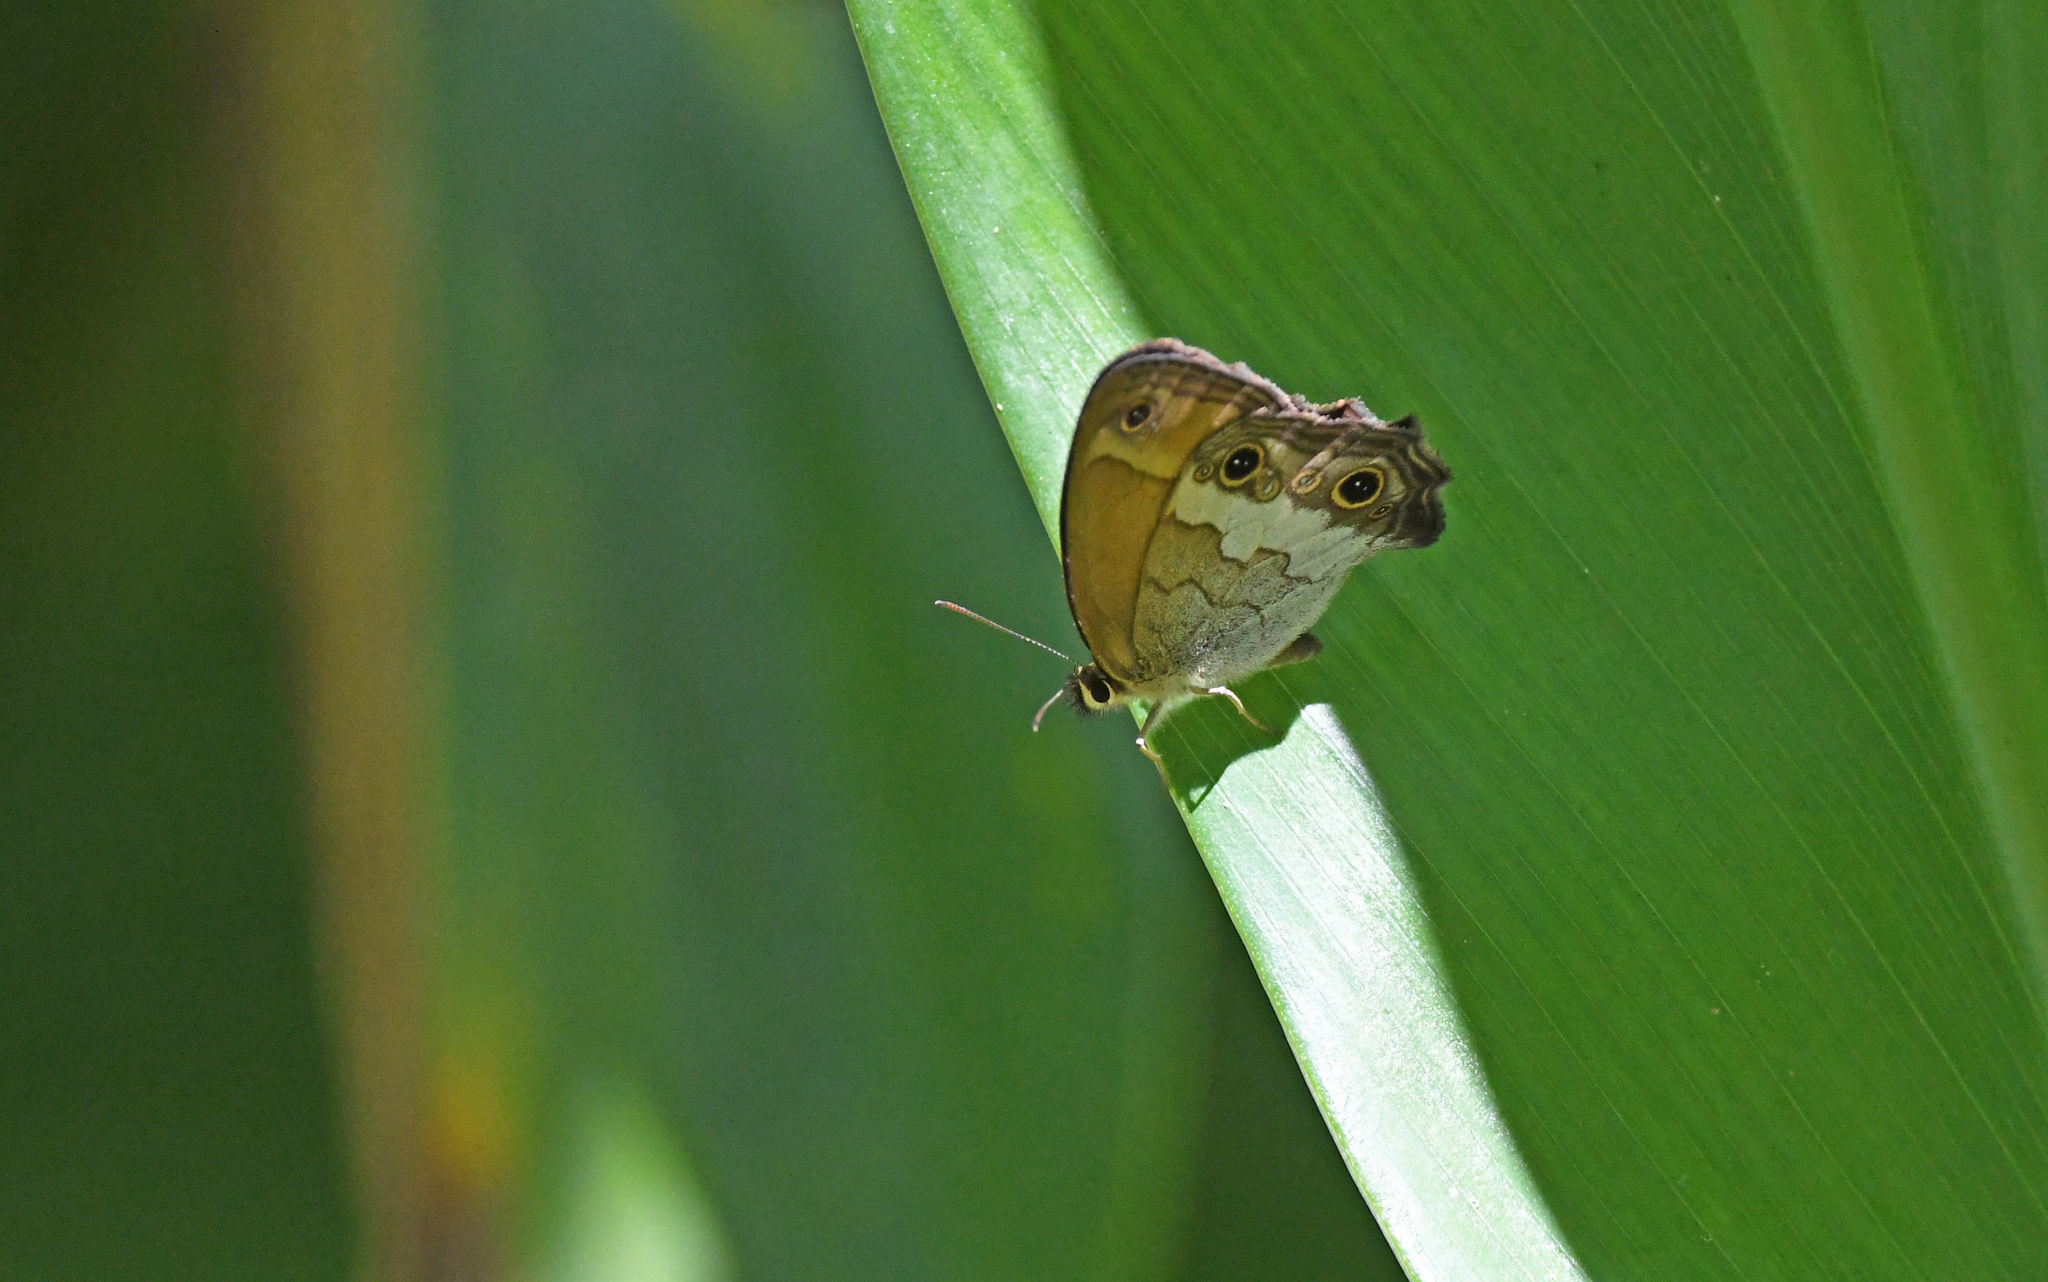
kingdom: Animalia
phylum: Arthropoda
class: Insecta
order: Lepidoptera
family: Nymphalidae
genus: Graphita
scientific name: Graphita griphe
